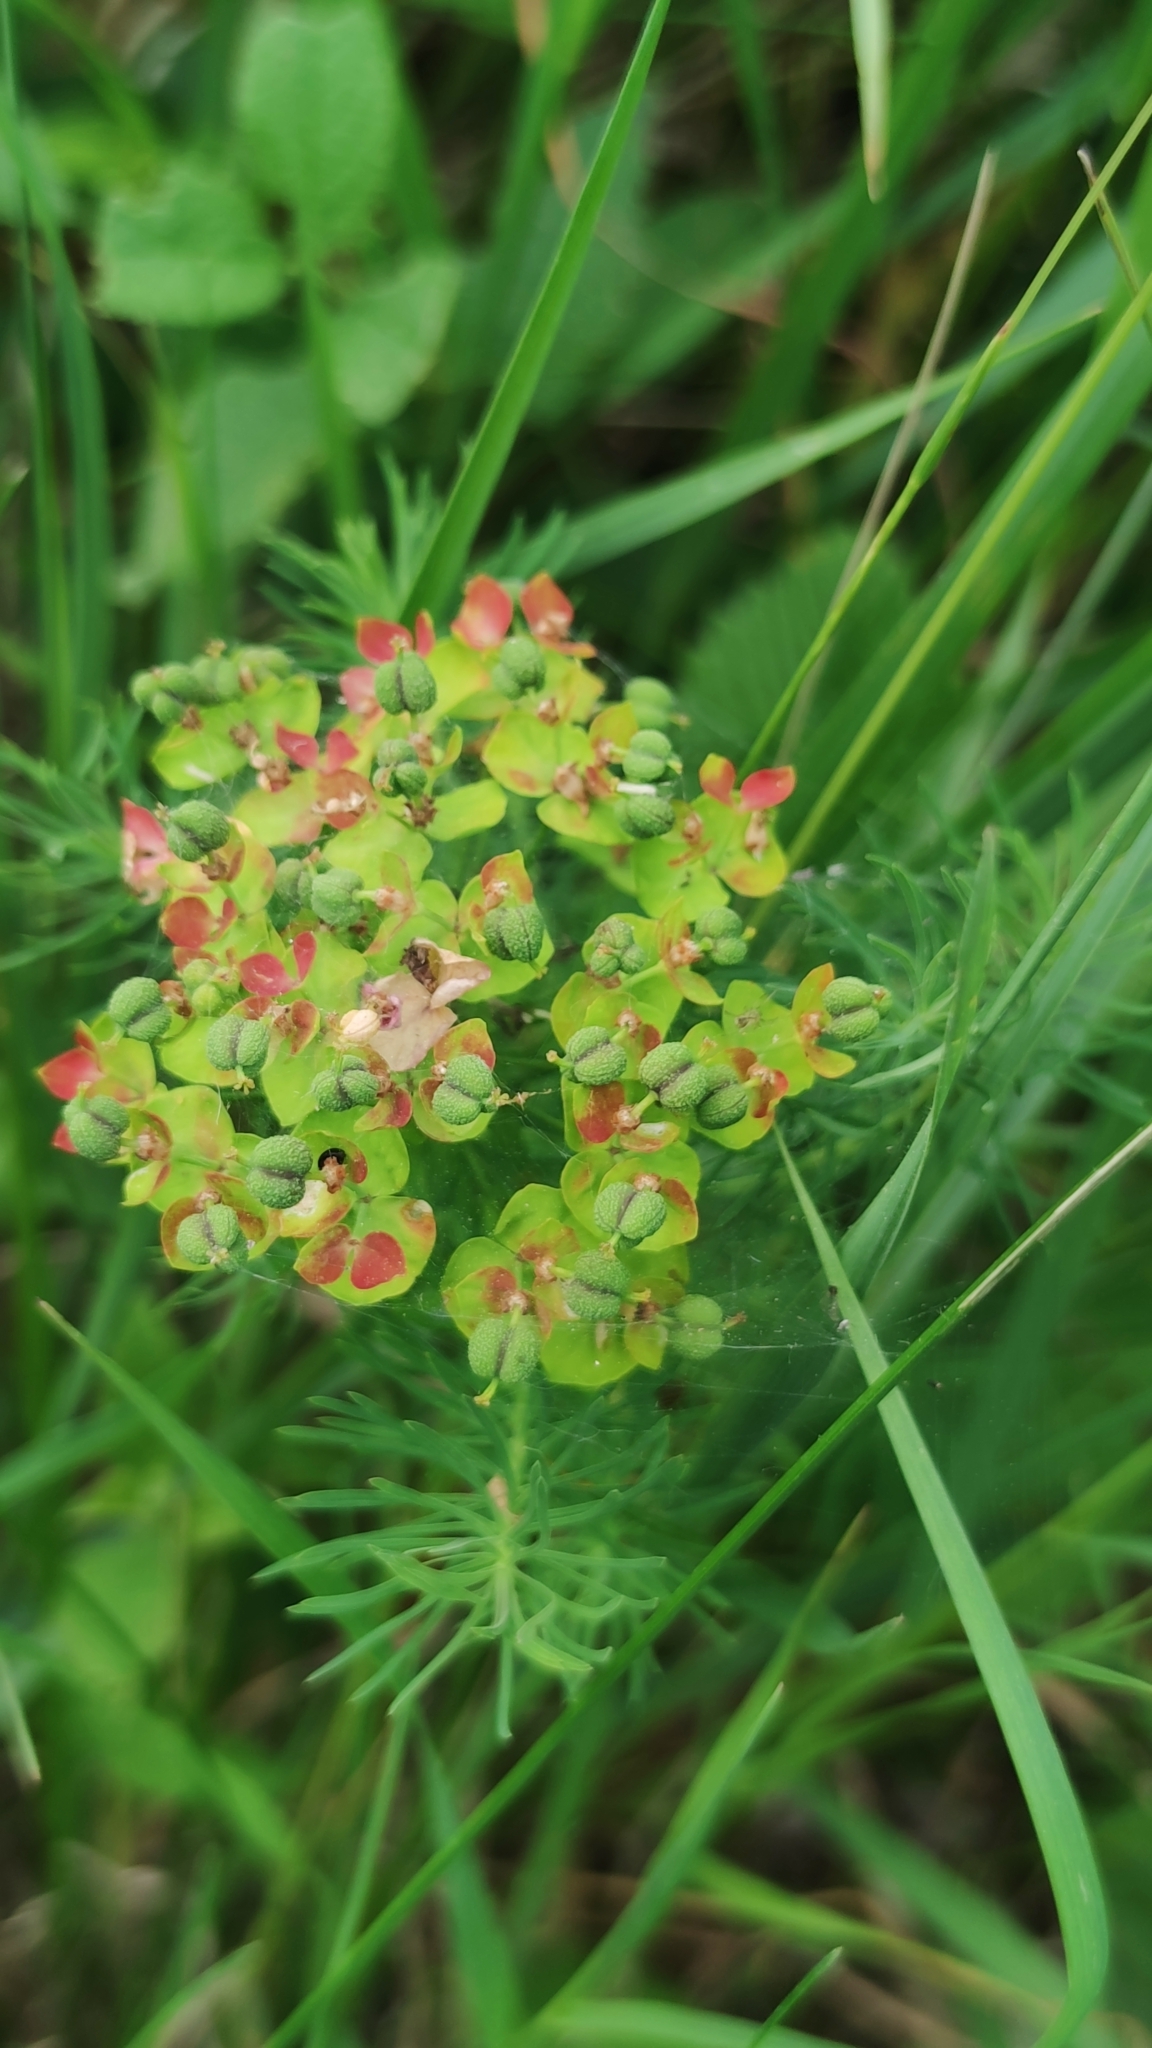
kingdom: Plantae
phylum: Tracheophyta
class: Magnoliopsida
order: Malpighiales
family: Euphorbiaceae
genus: Euphorbia
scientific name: Euphorbia cyparissias
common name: Cypress spurge
